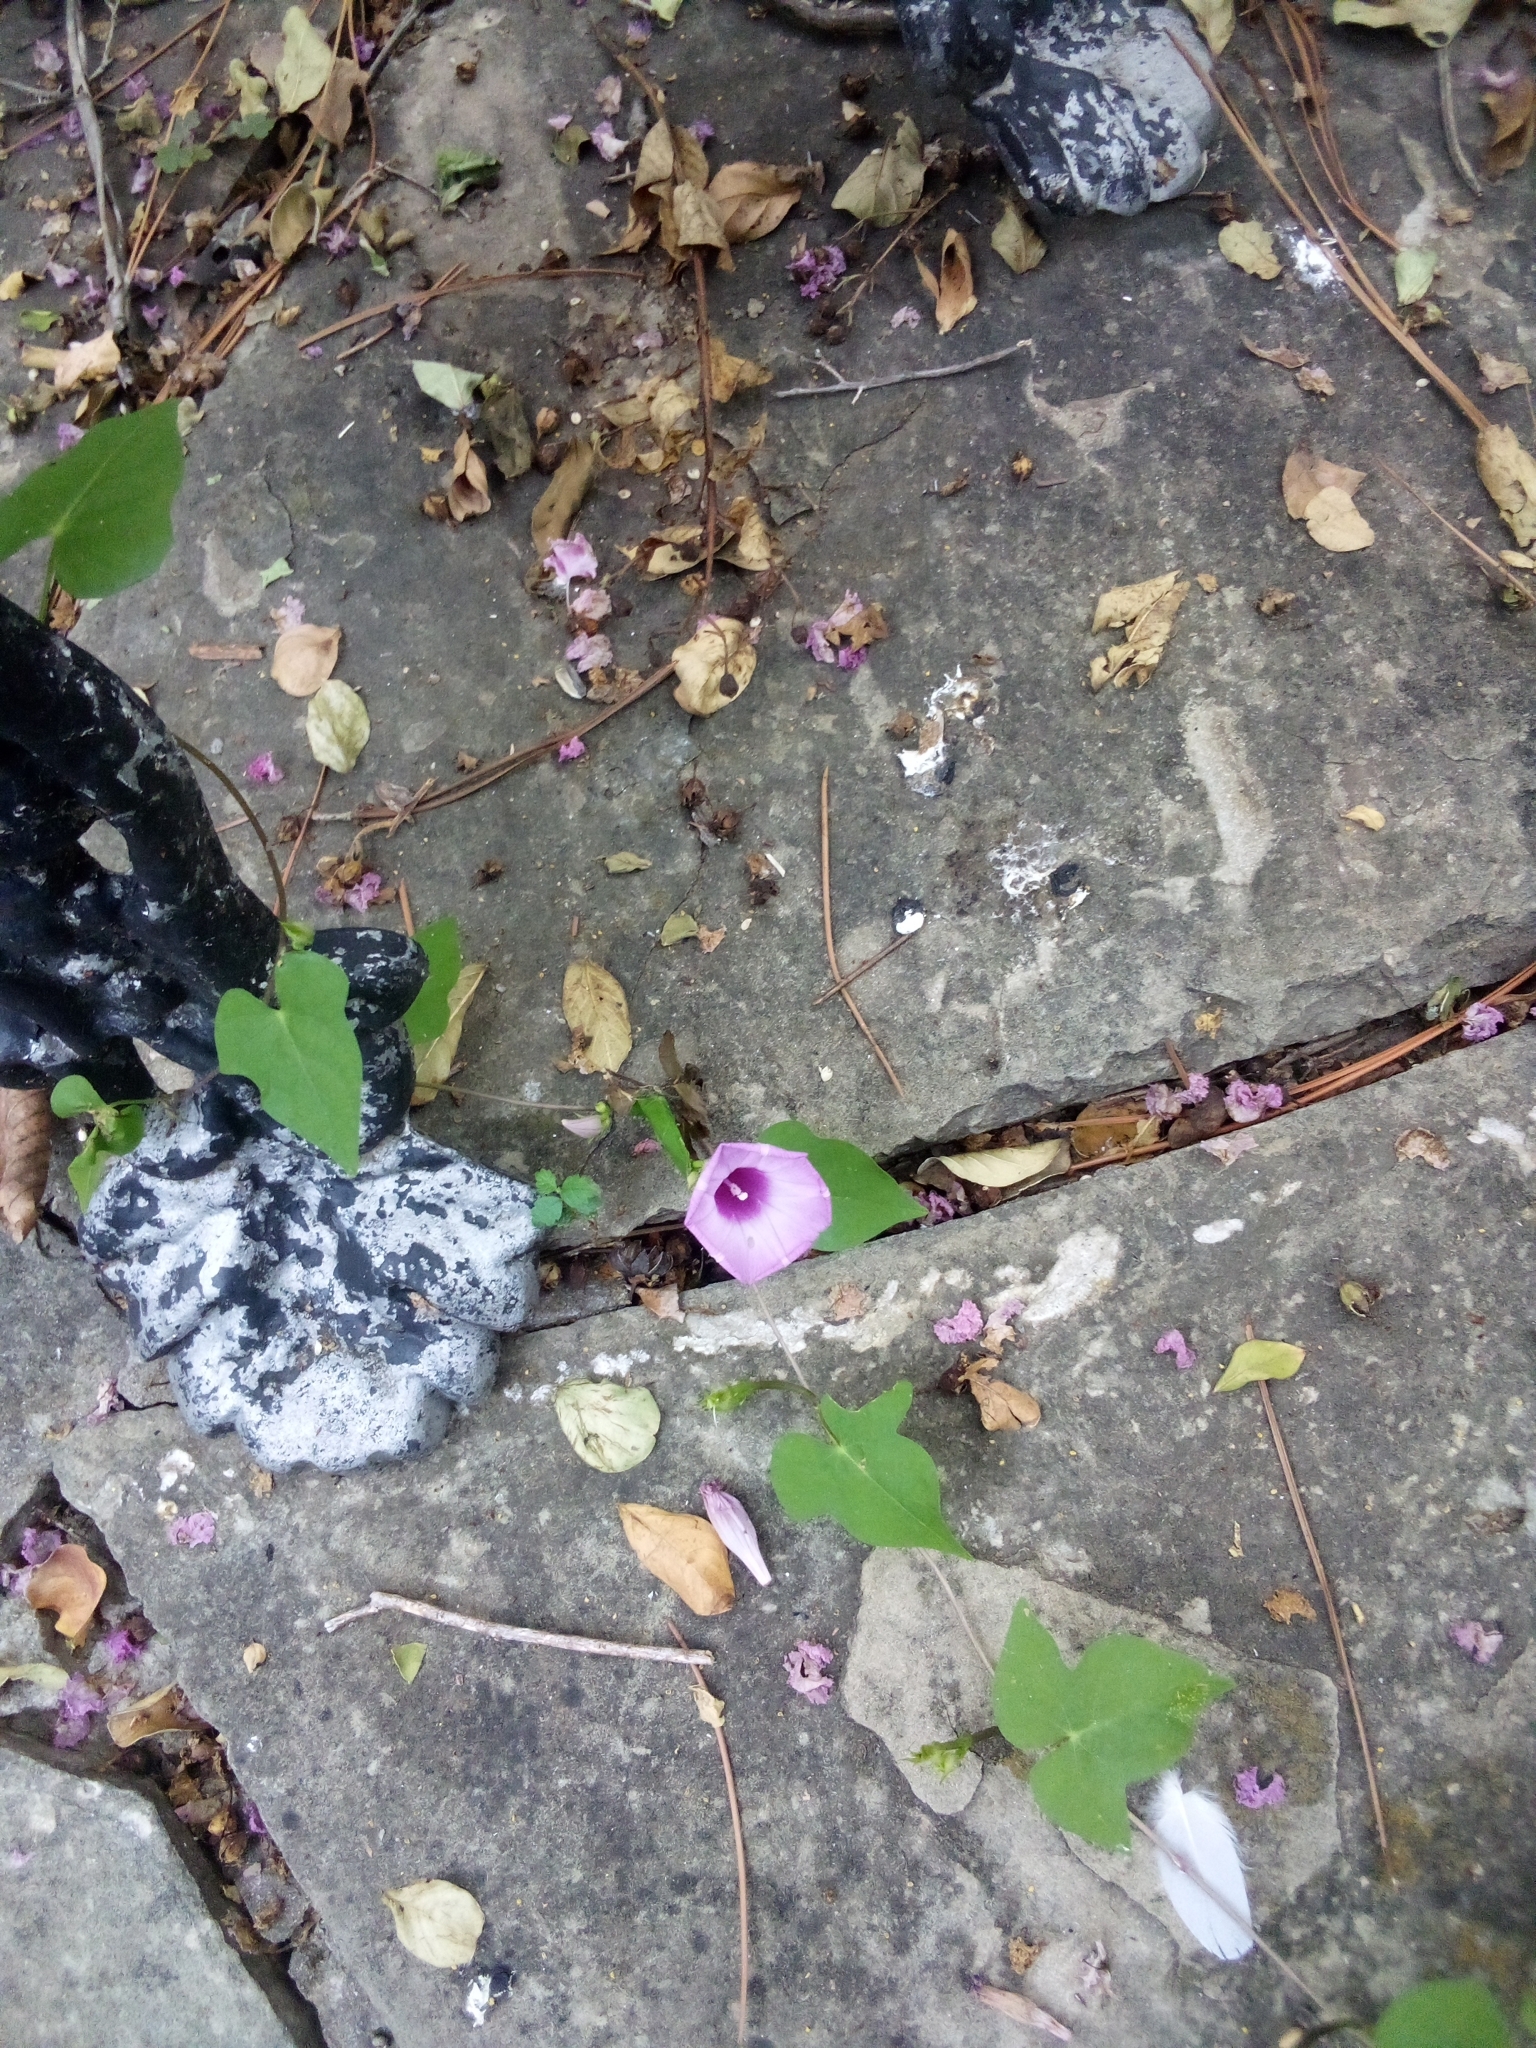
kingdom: Plantae
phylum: Tracheophyta
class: Magnoliopsida
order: Solanales
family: Convolvulaceae
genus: Ipomoea
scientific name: Ipomoea cordatotriloba
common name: Cotton morning glory
